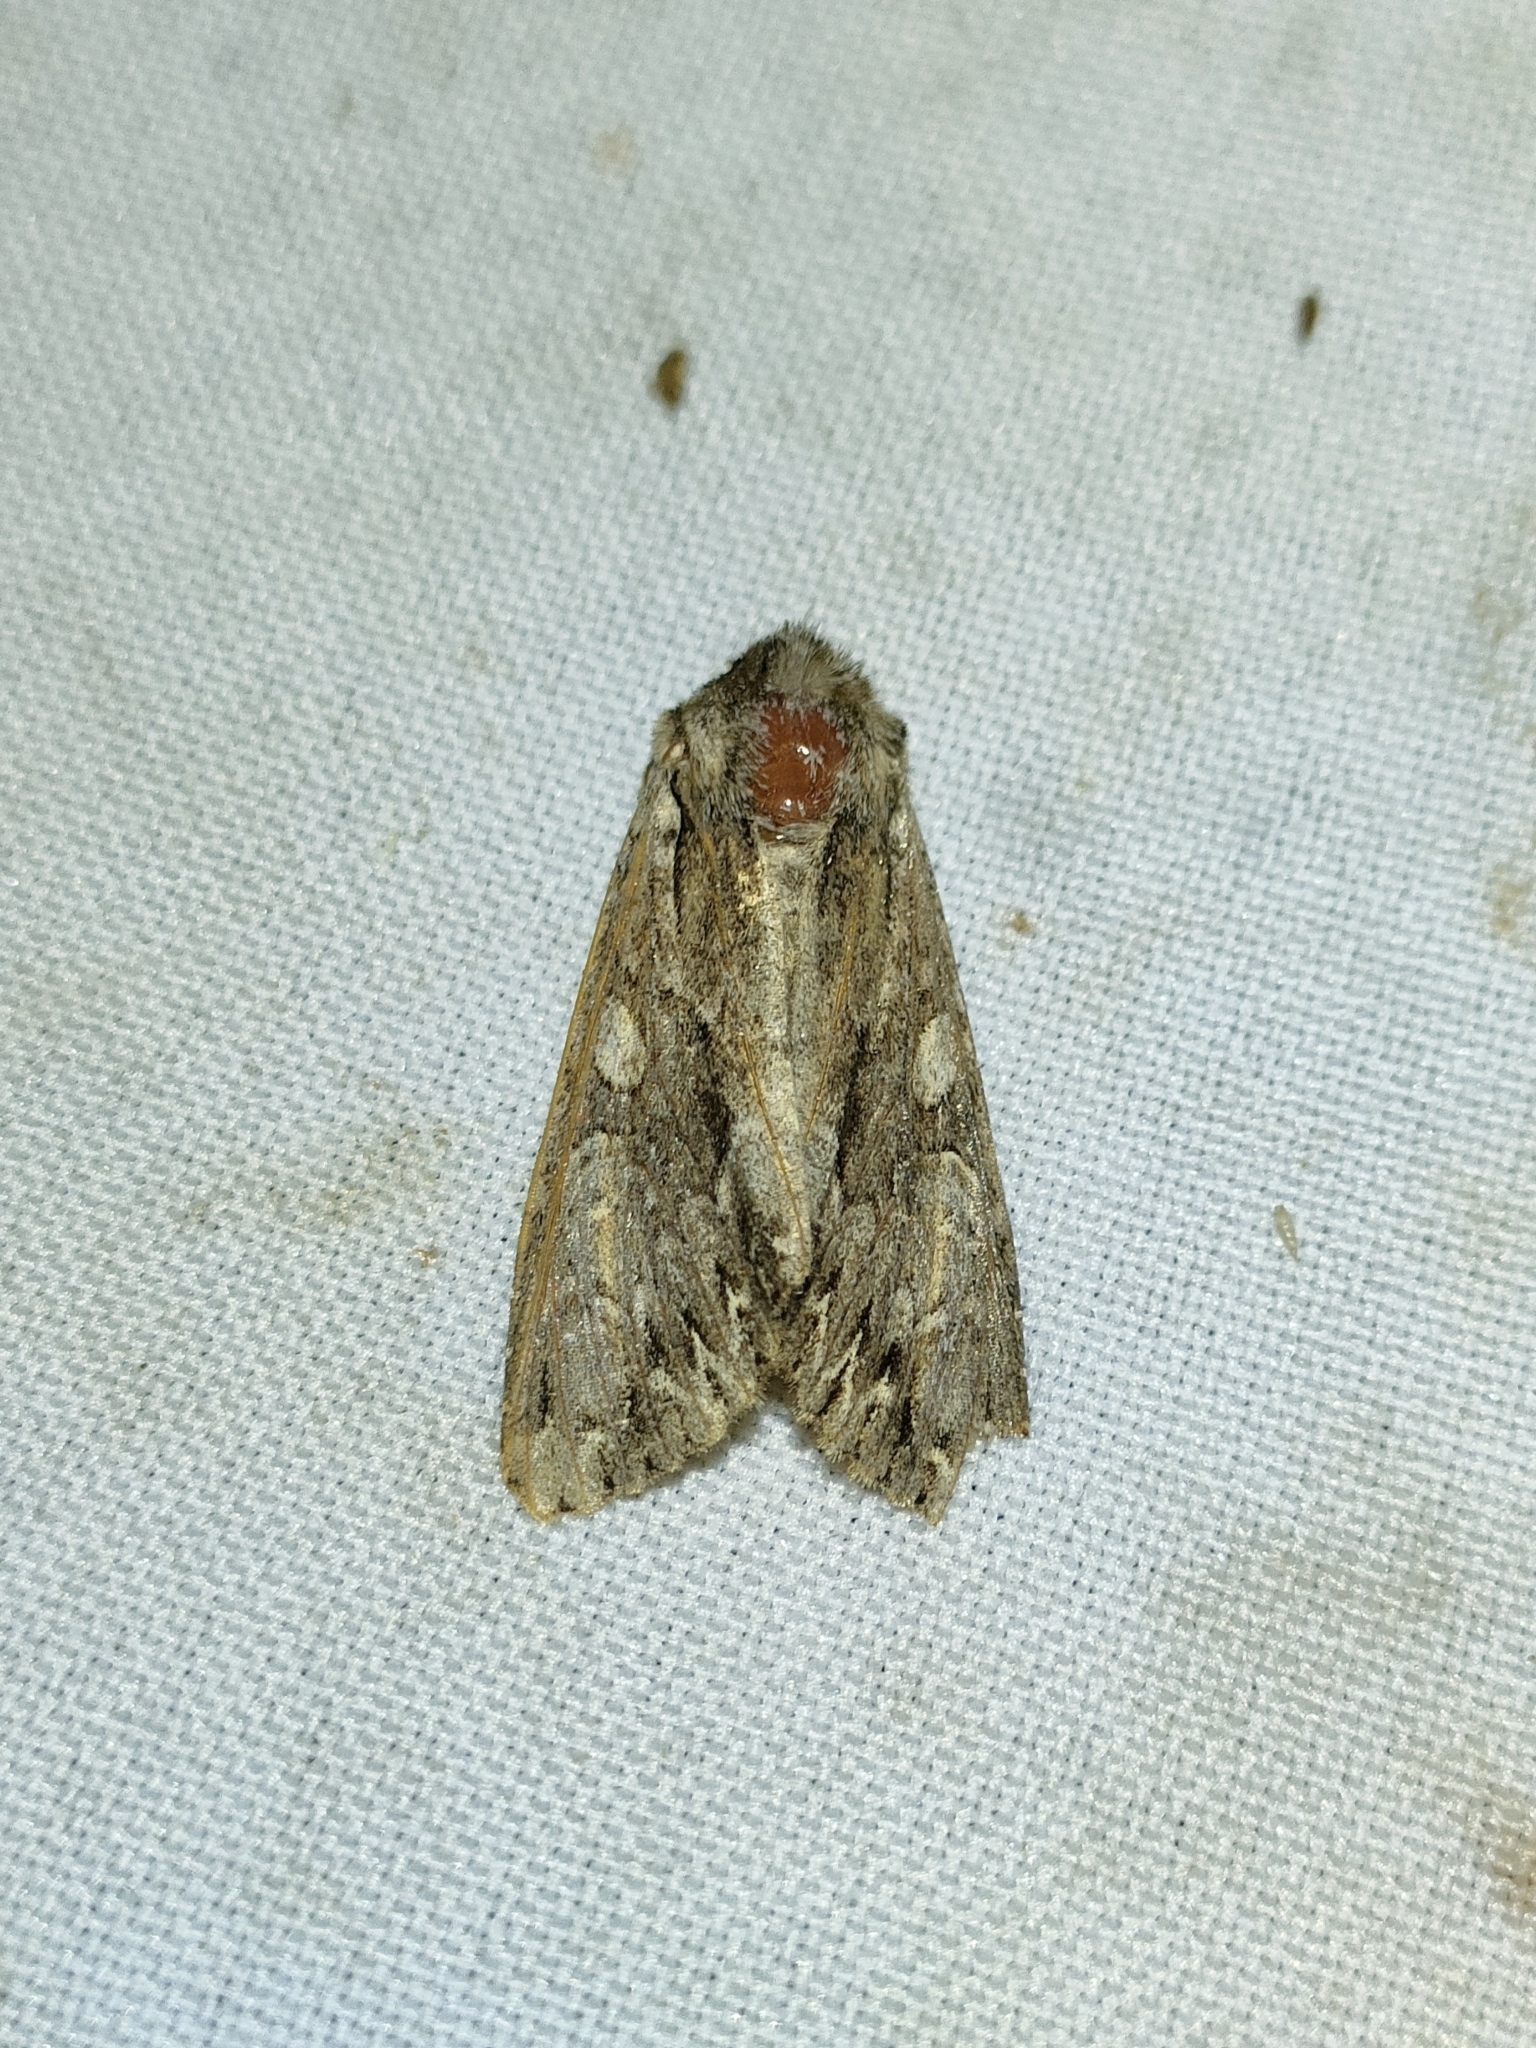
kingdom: Animalia
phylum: Arthropoda
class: Insecta
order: Lepidoptera
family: Noctuidae
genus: Apamea
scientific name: Apamea monoglypha
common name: Dark arches
